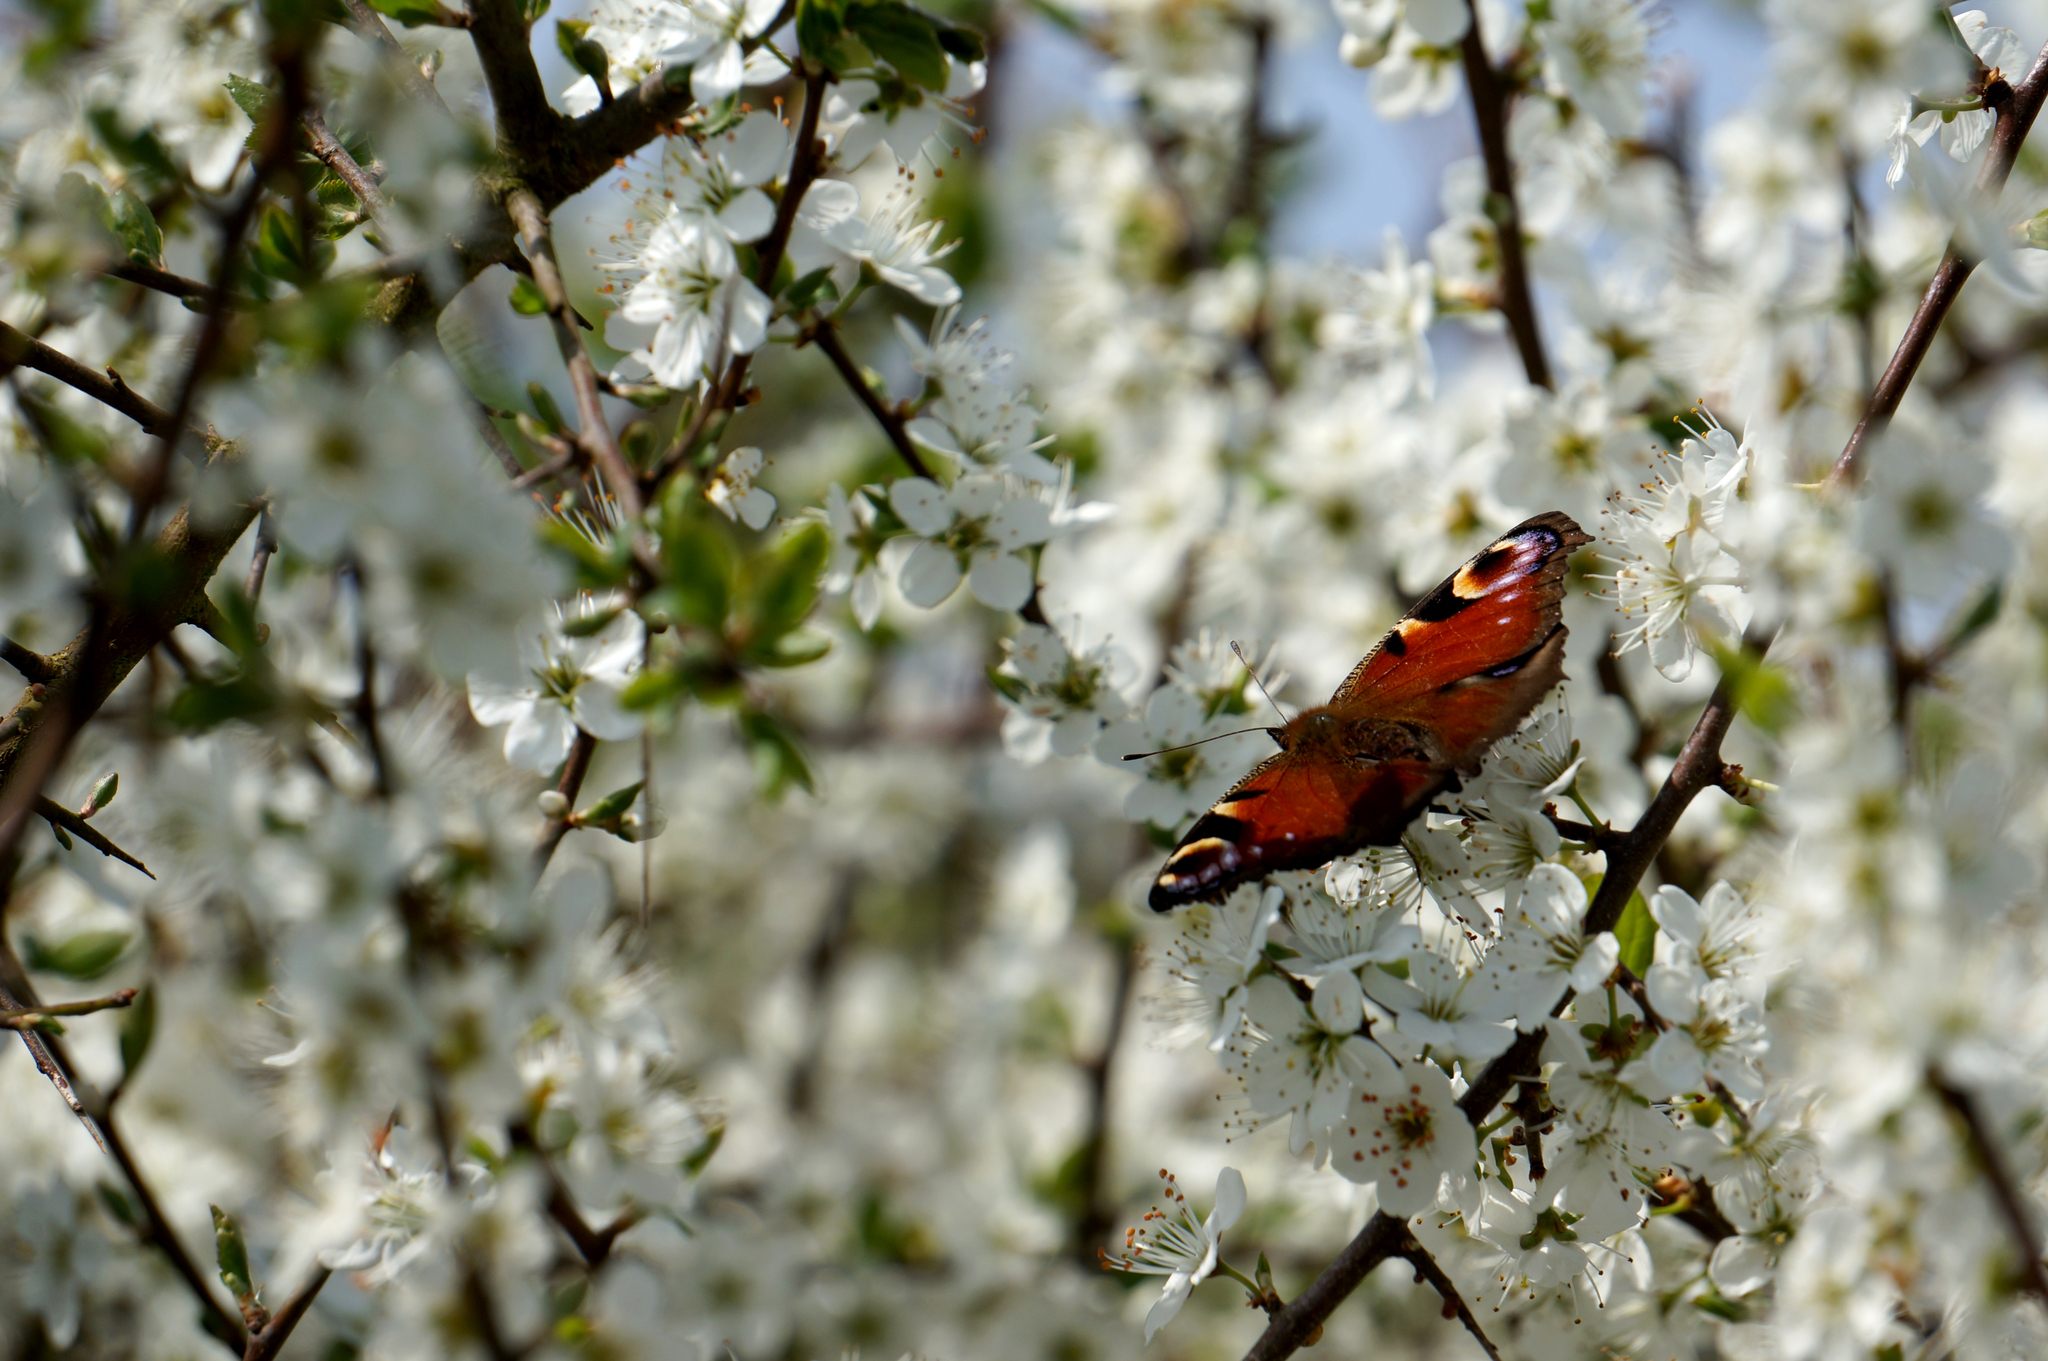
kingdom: Animalia
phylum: Arthropoda
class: Insecta
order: Lepidoptera
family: Nymphalidae
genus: Aglais
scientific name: Aglais io
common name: Peacock
